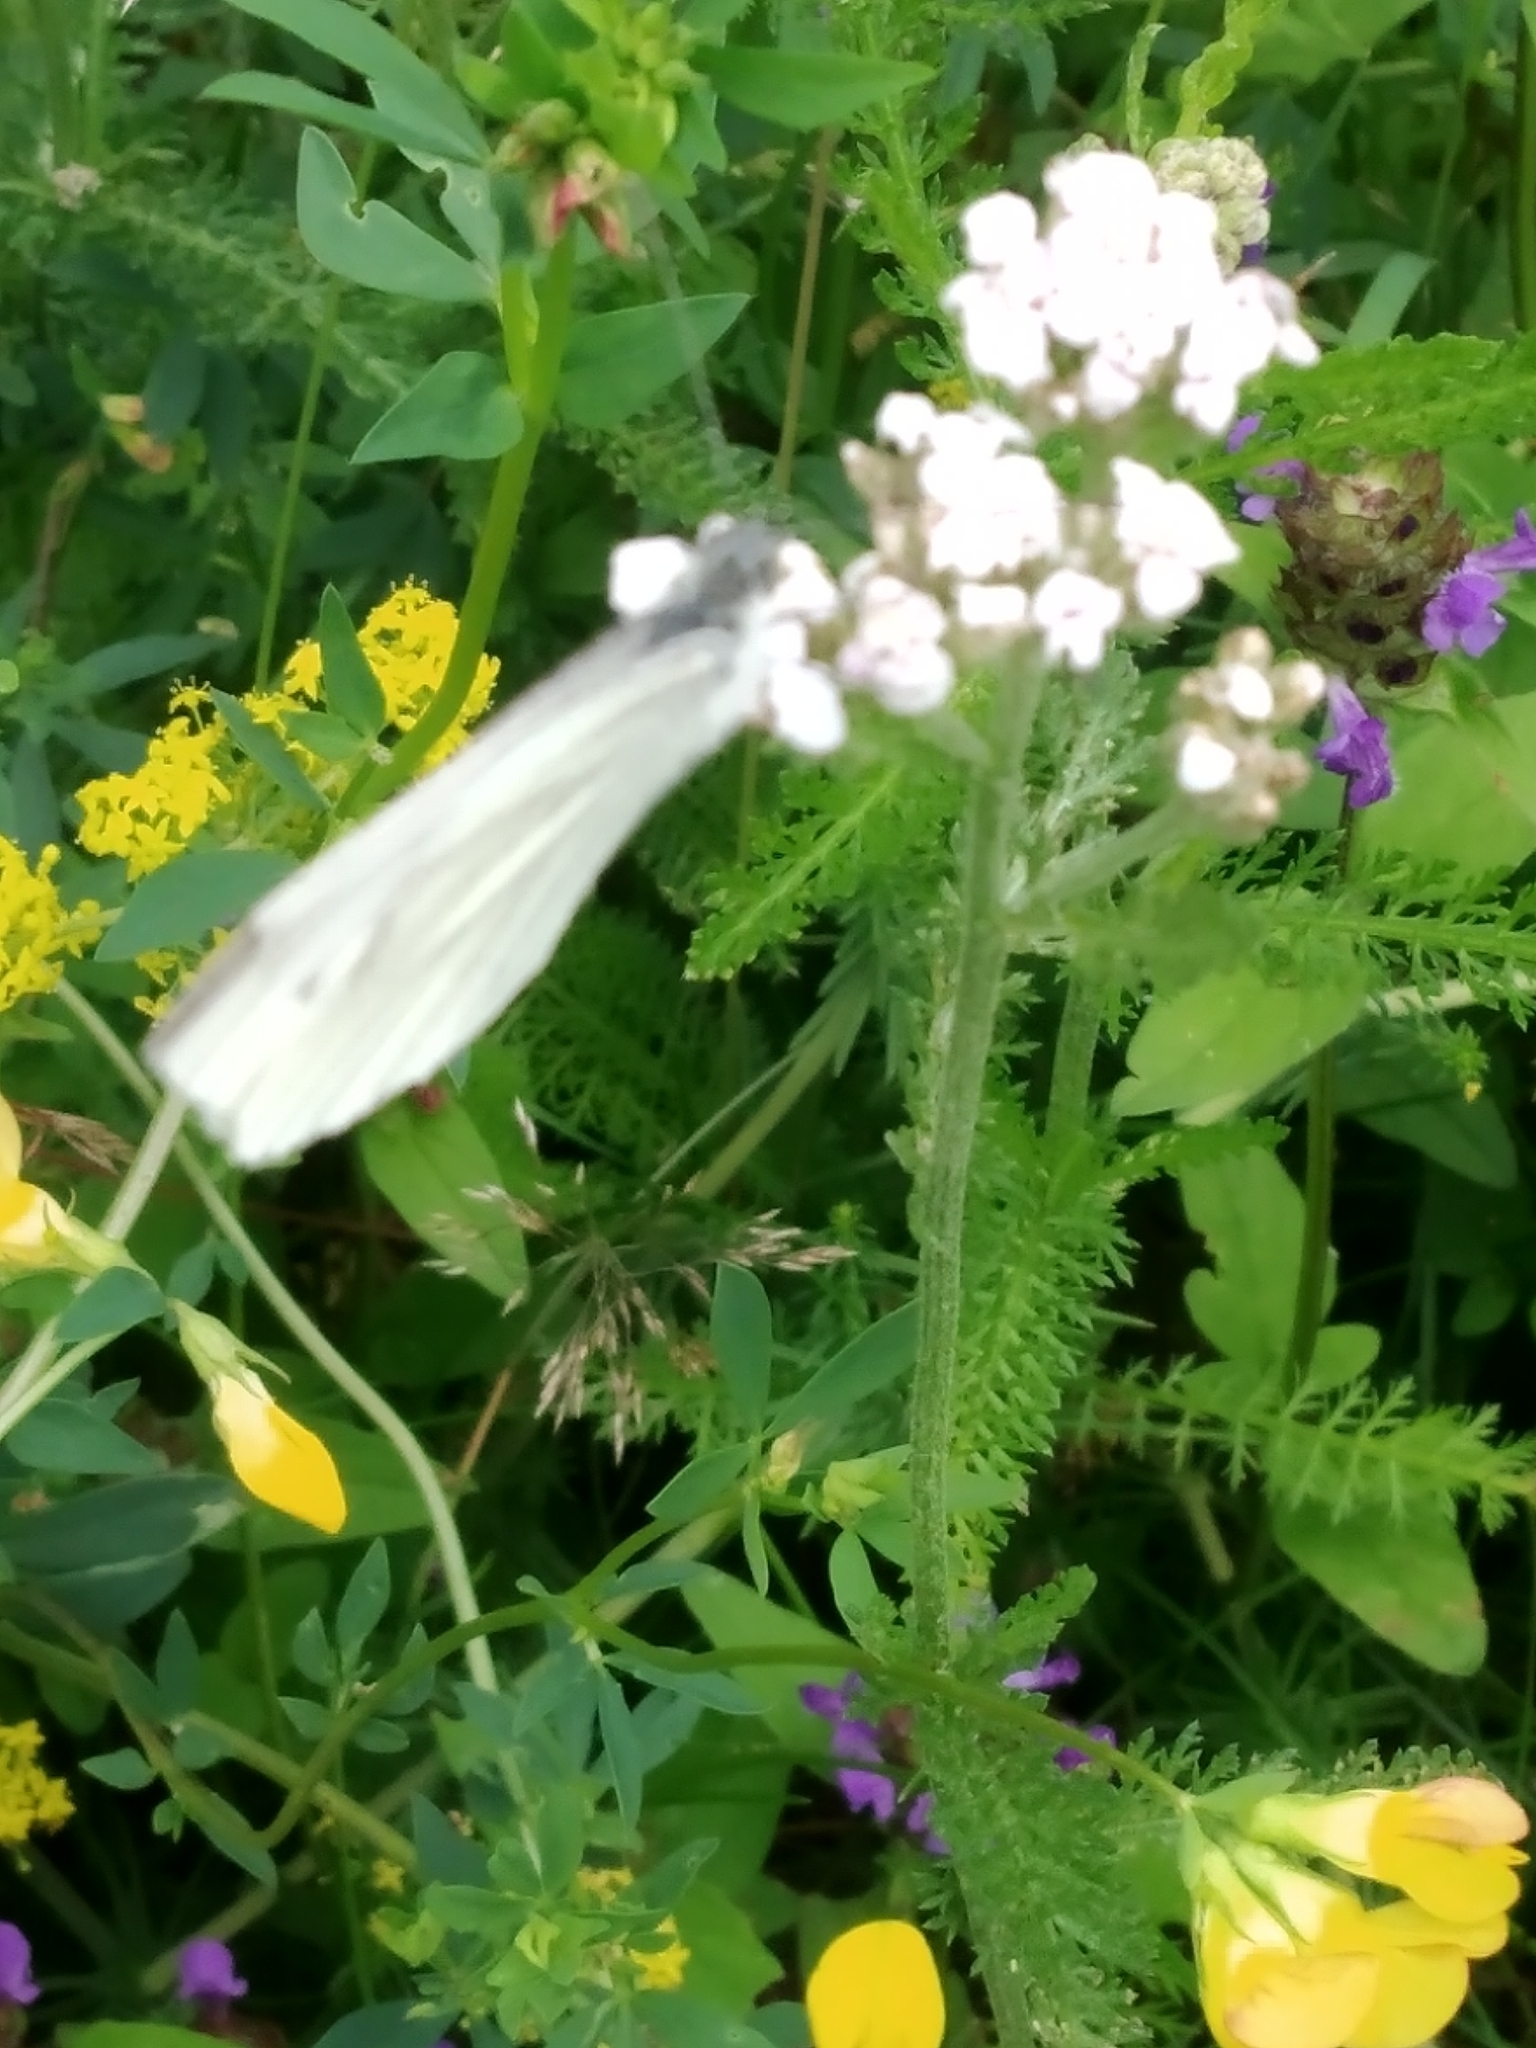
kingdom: Animalia
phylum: Arthropoda
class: Insecta
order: Lepidoptera
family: Pieridae
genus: Pieris
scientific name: Pieris napi
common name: Green-veined white
